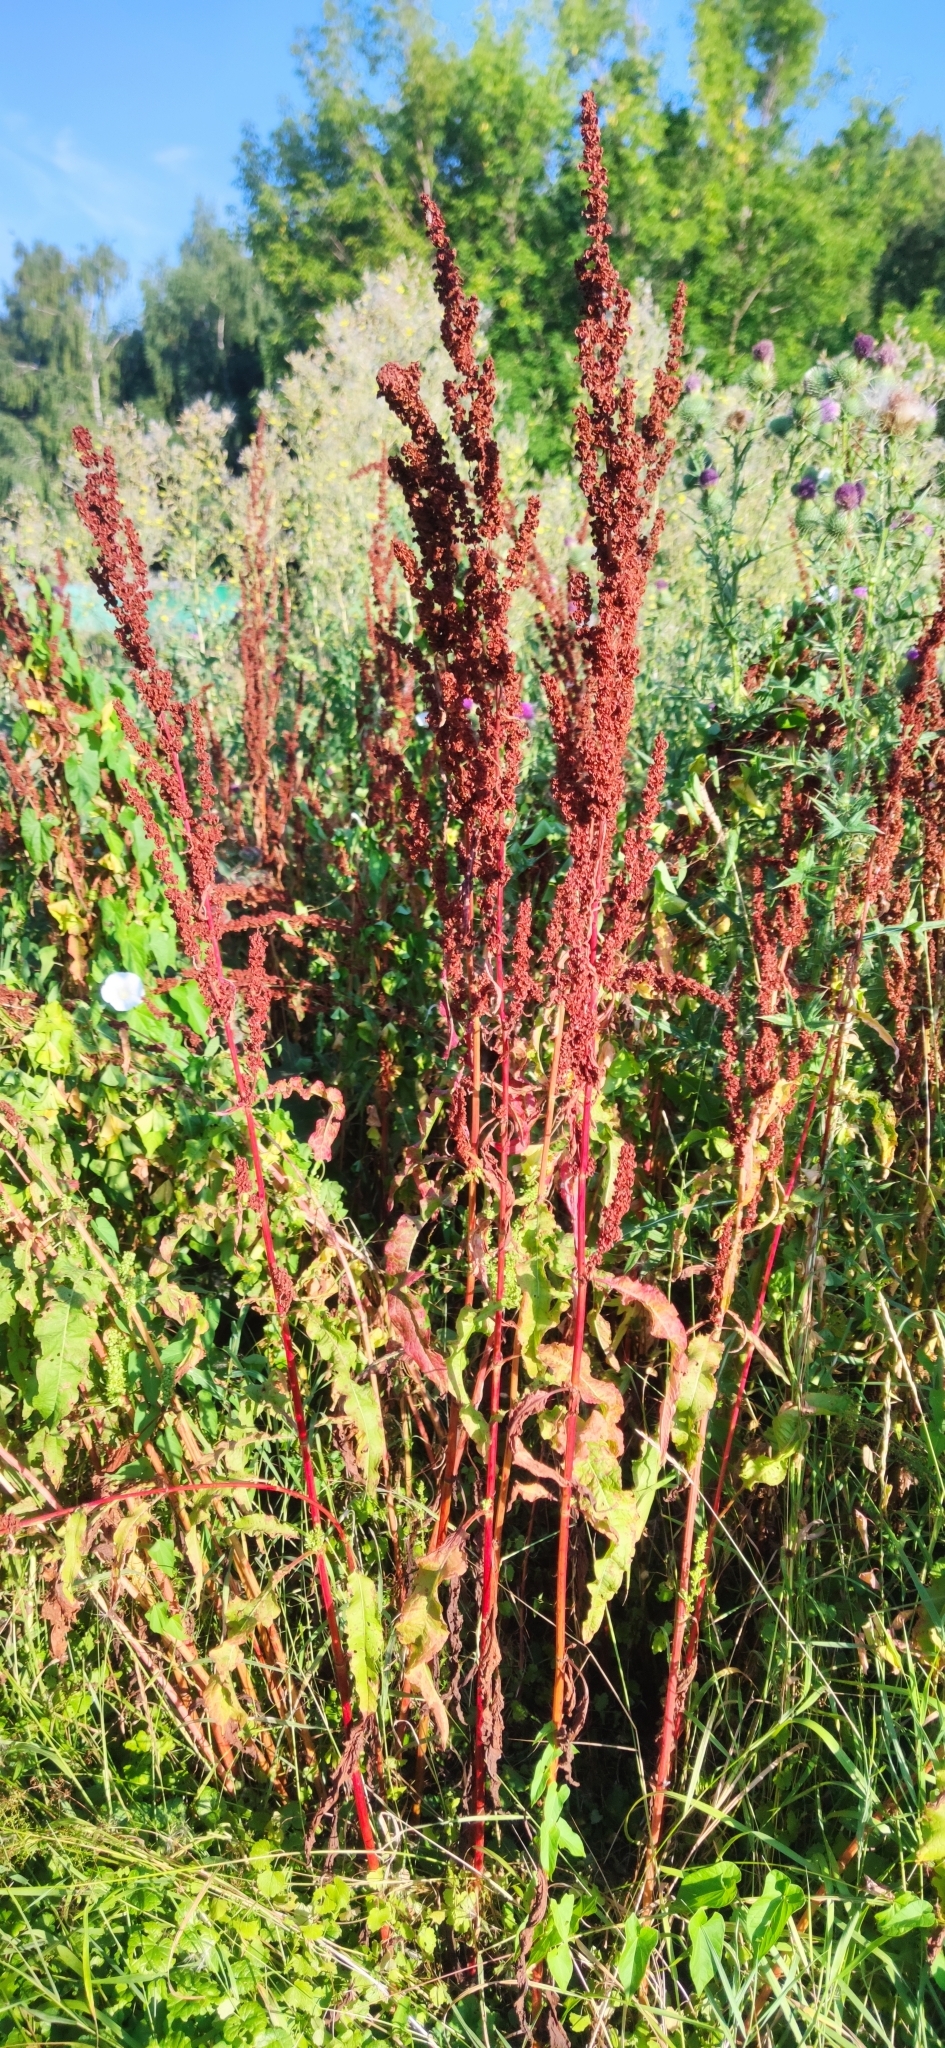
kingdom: Plantae
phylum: Tracheophyta
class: Magnoliopsida
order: Caryophyllales
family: Polygonaceae
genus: Rumex
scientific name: Rumex crispus
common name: Curled dock
